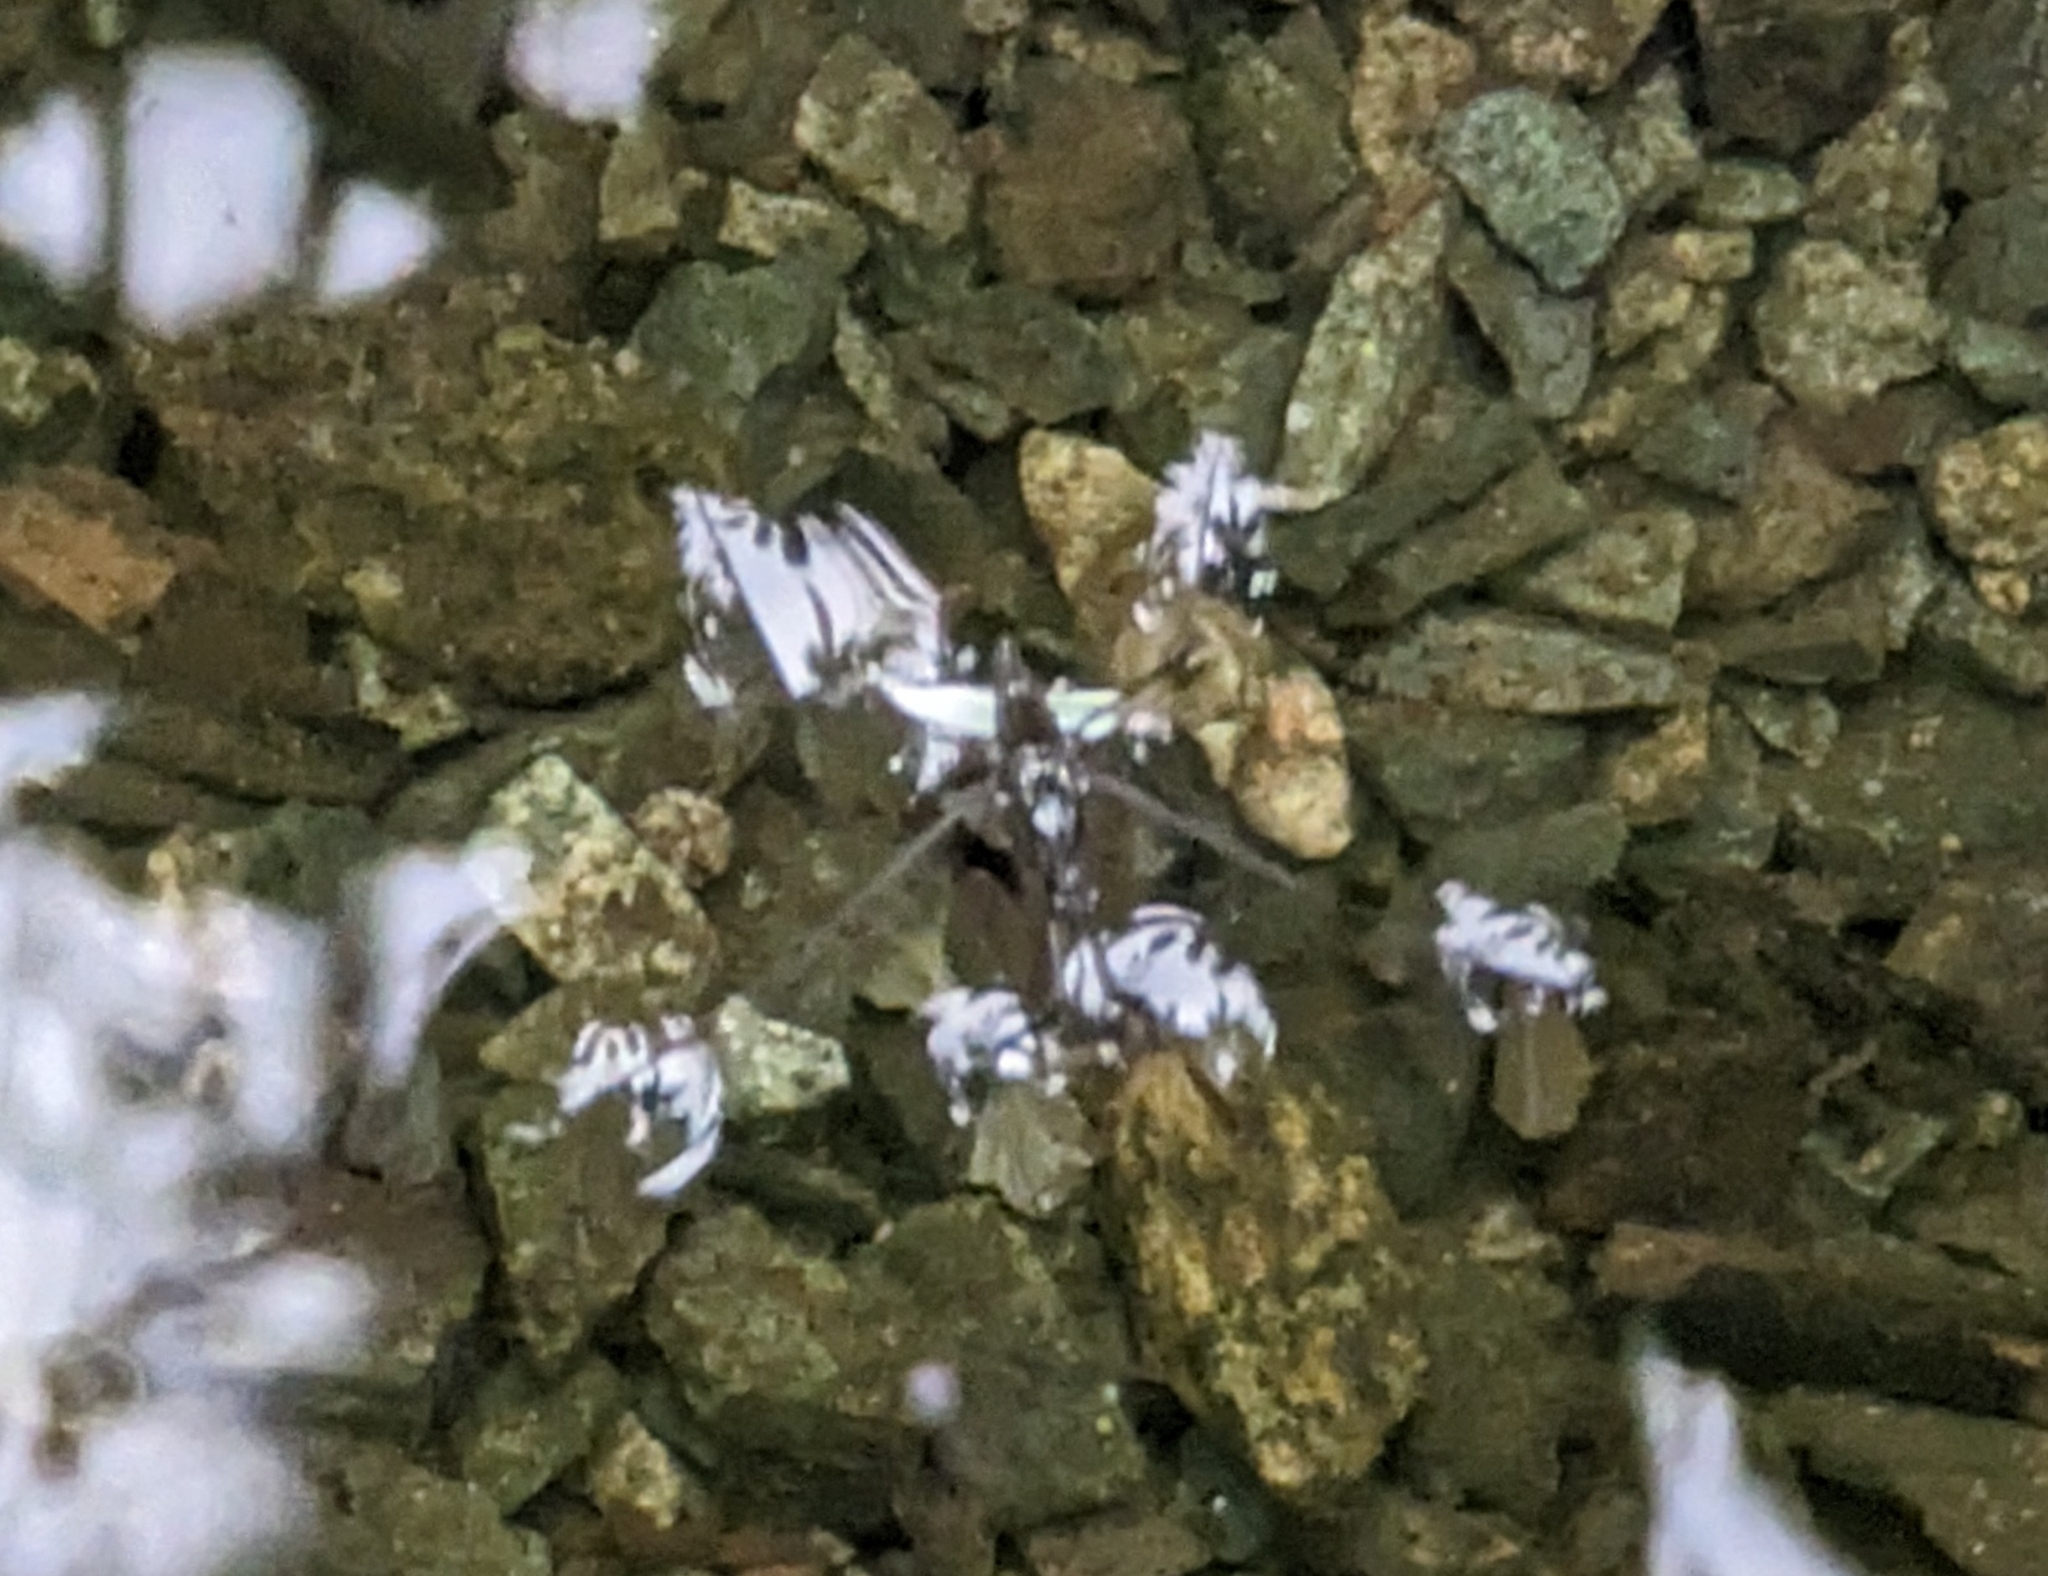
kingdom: Animalia
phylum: Arthropoda
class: Insecta
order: Hemiptera
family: Gerridae
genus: Aquarius
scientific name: Aquarius remigis
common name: Common water strider
